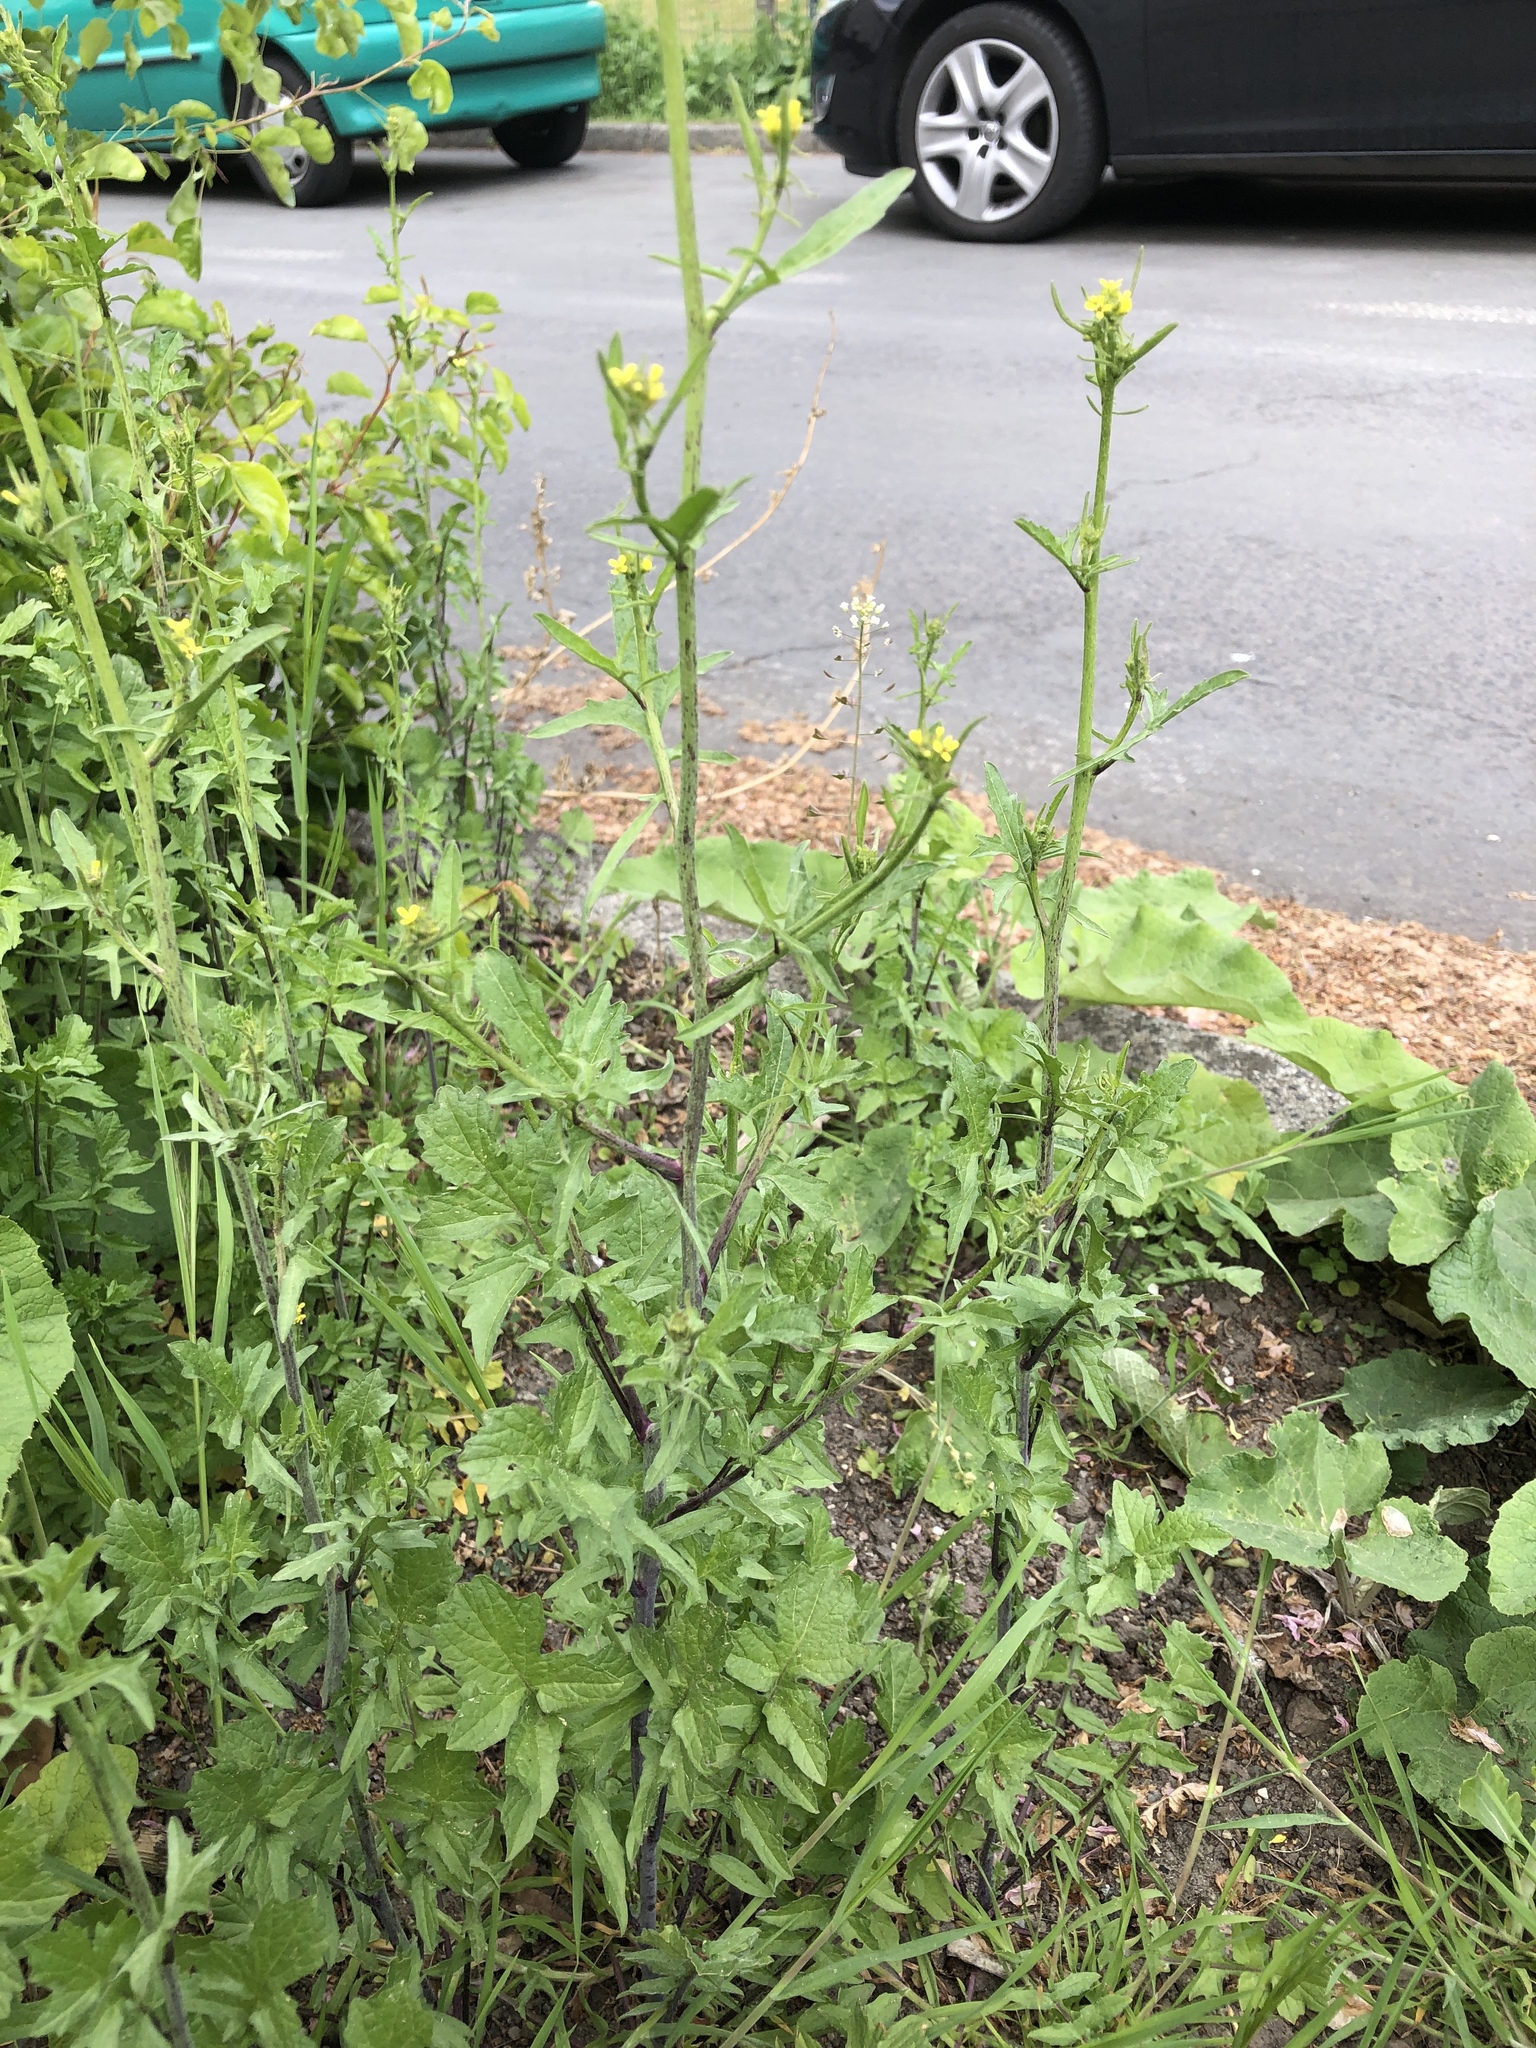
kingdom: Plantae
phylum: Tracheophyta
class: Magnoliopsida
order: Brassicales
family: Brassicaceae
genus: Sisymbrium
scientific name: Sisymbrium officinale
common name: Hedge mustard
